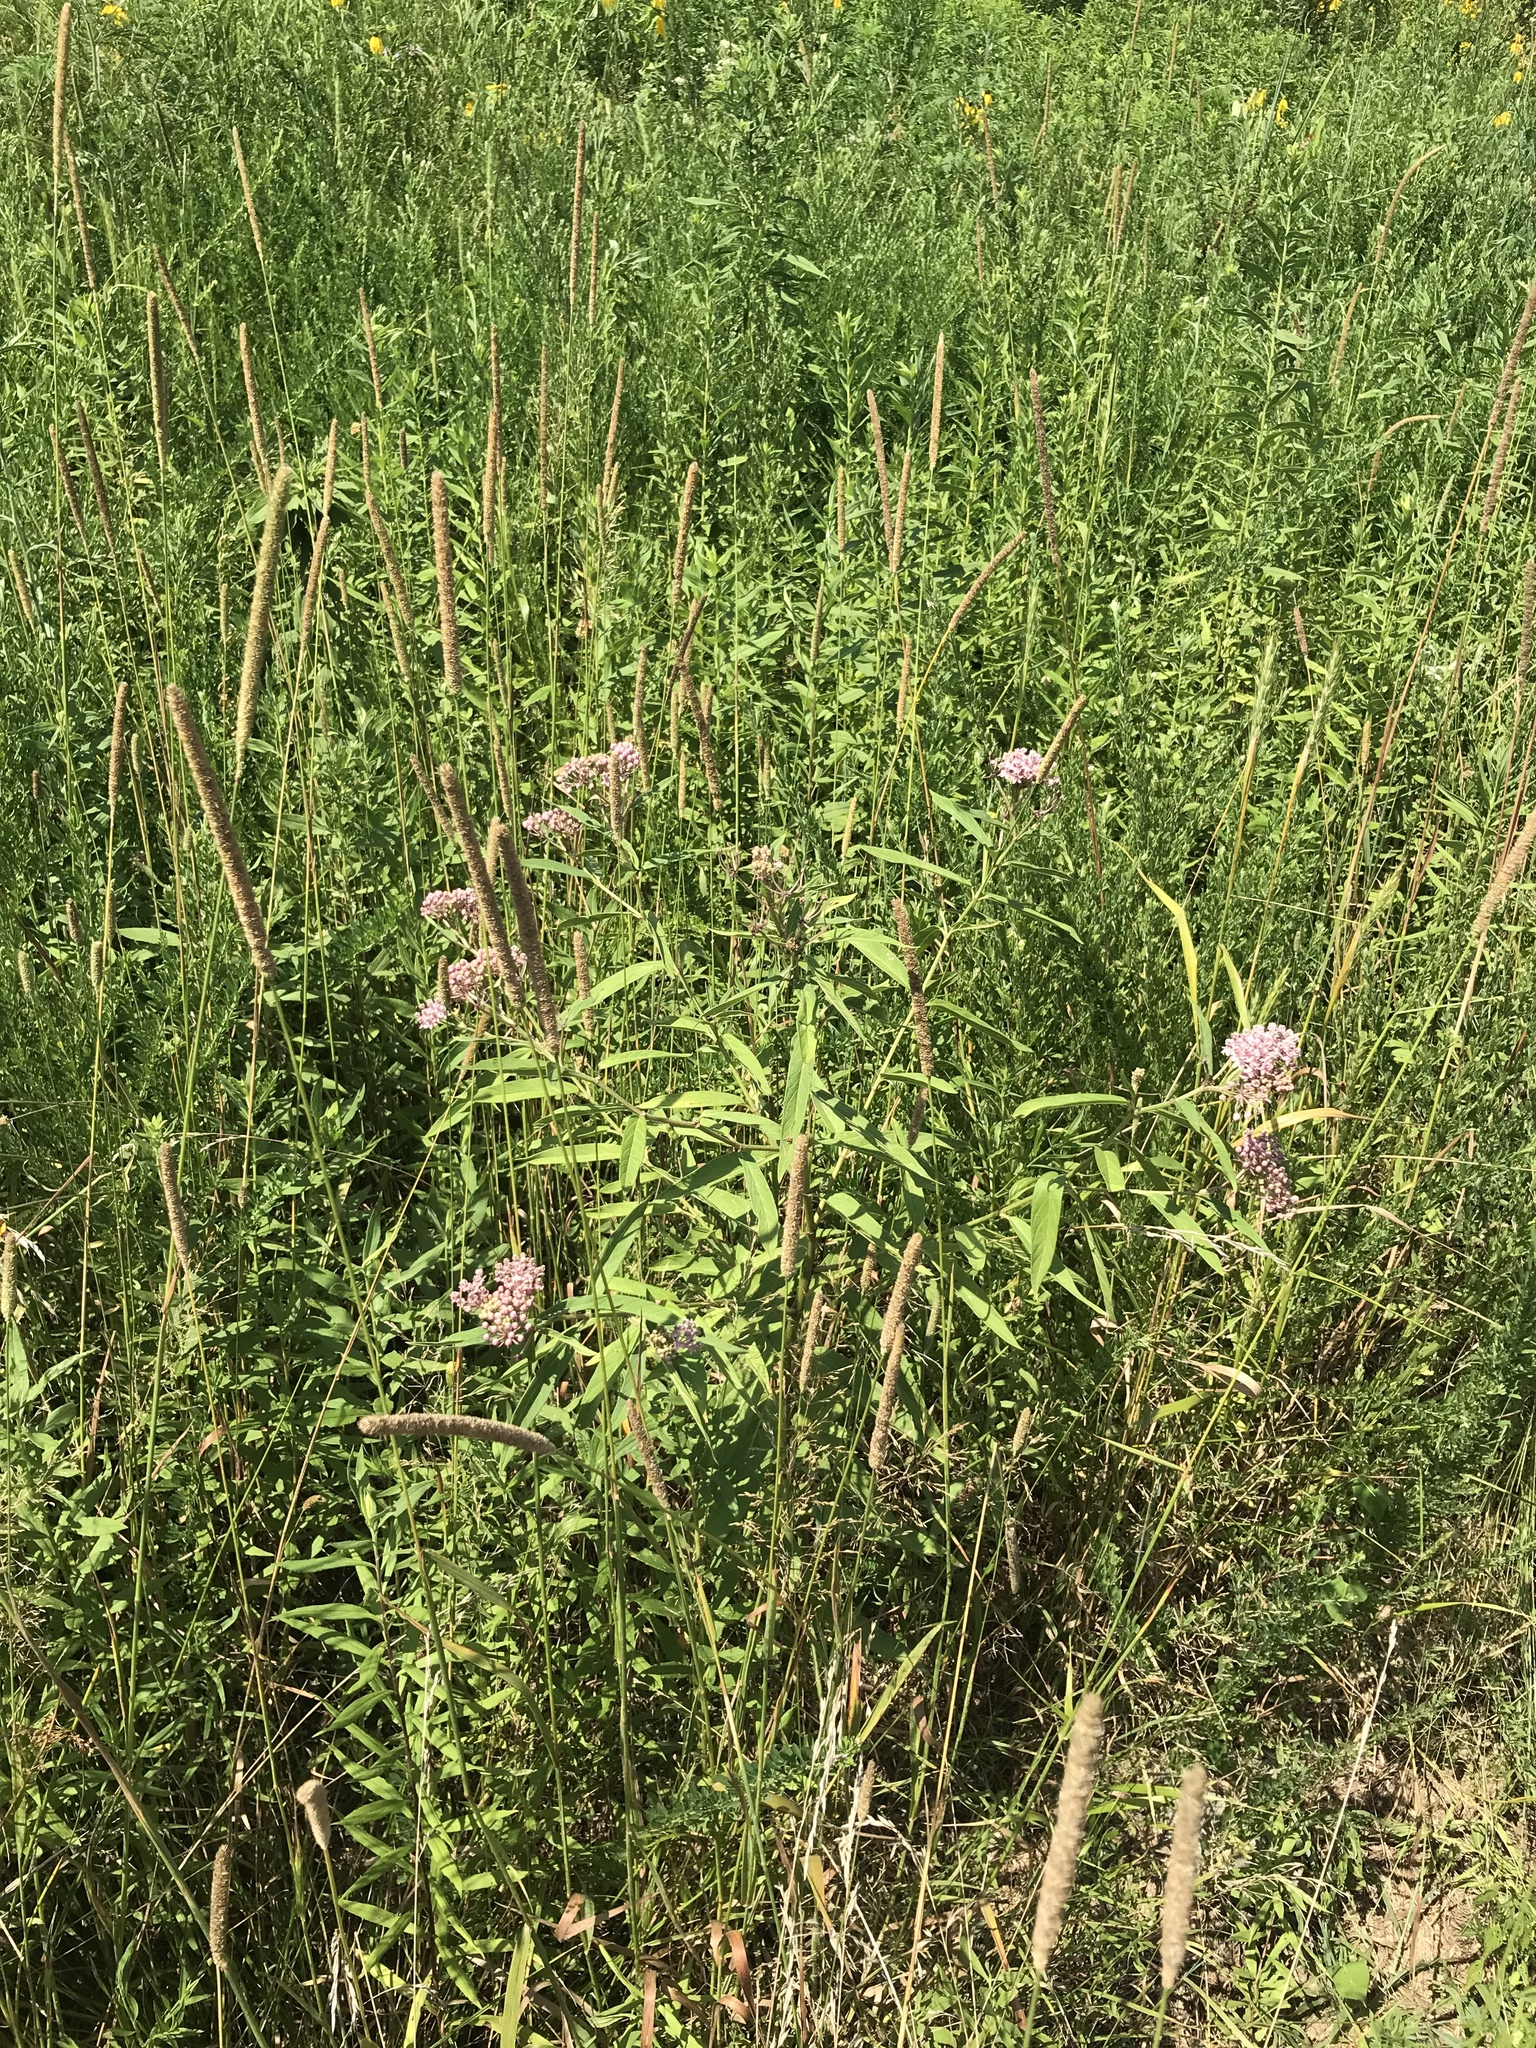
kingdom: Plantae
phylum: Tracheophyta
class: Magnoliopsida
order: Gentianales
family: Apocynaceae
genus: Asclepias
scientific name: Asclepias incarnata
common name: Swamp milkweed
